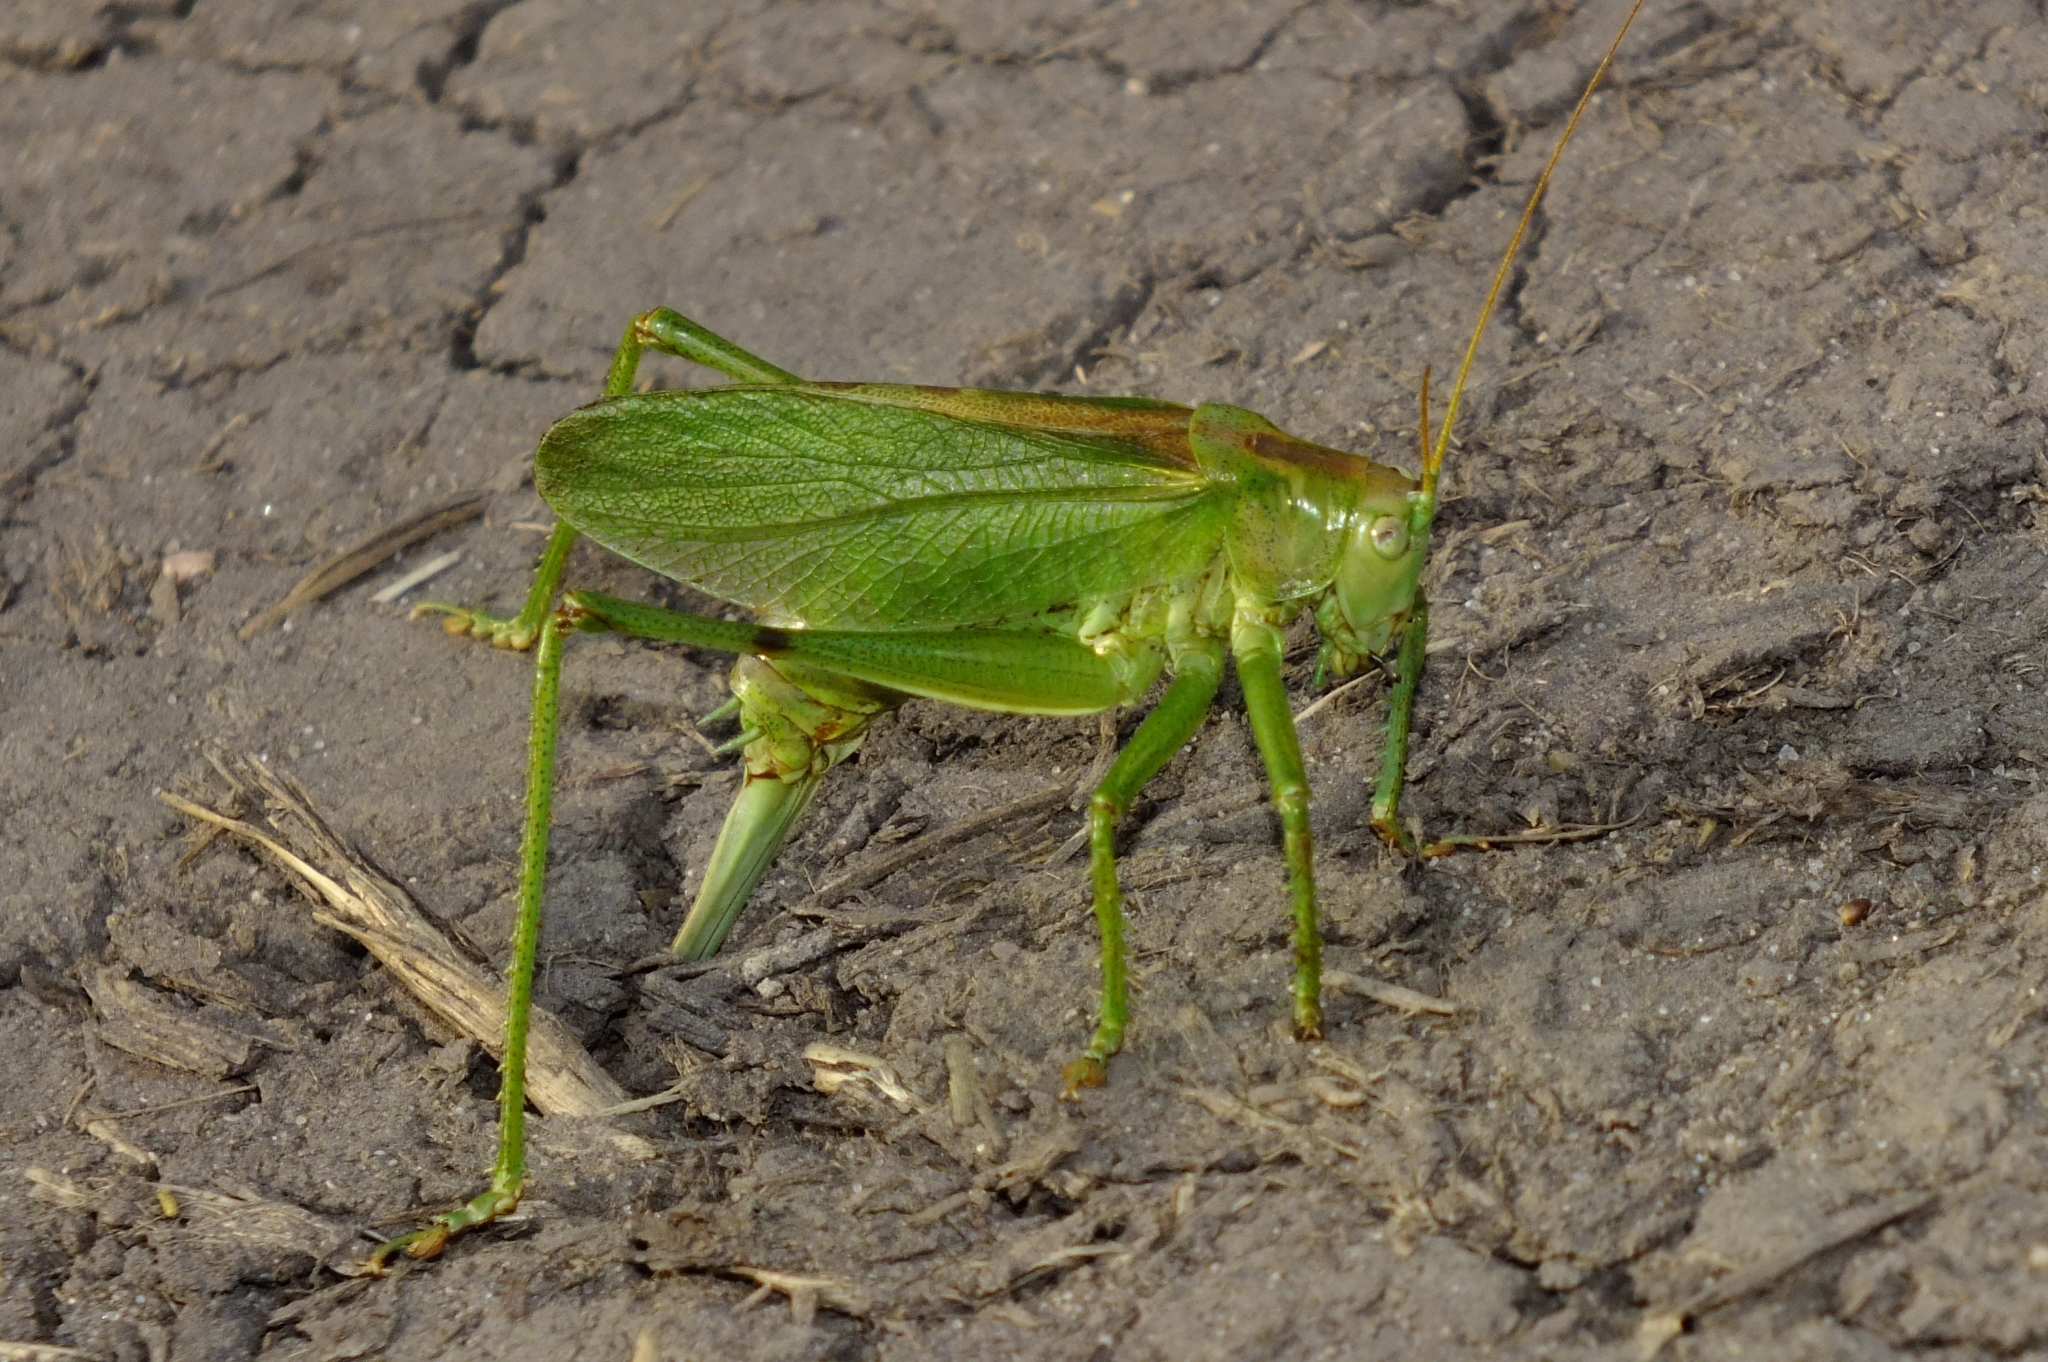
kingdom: Animalia
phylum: Arthropoda
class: Insecta
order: Orthoptera
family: Tettigoniidae
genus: Tettigonia
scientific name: Tettigonia cantans
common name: Upland green bush-cricket
